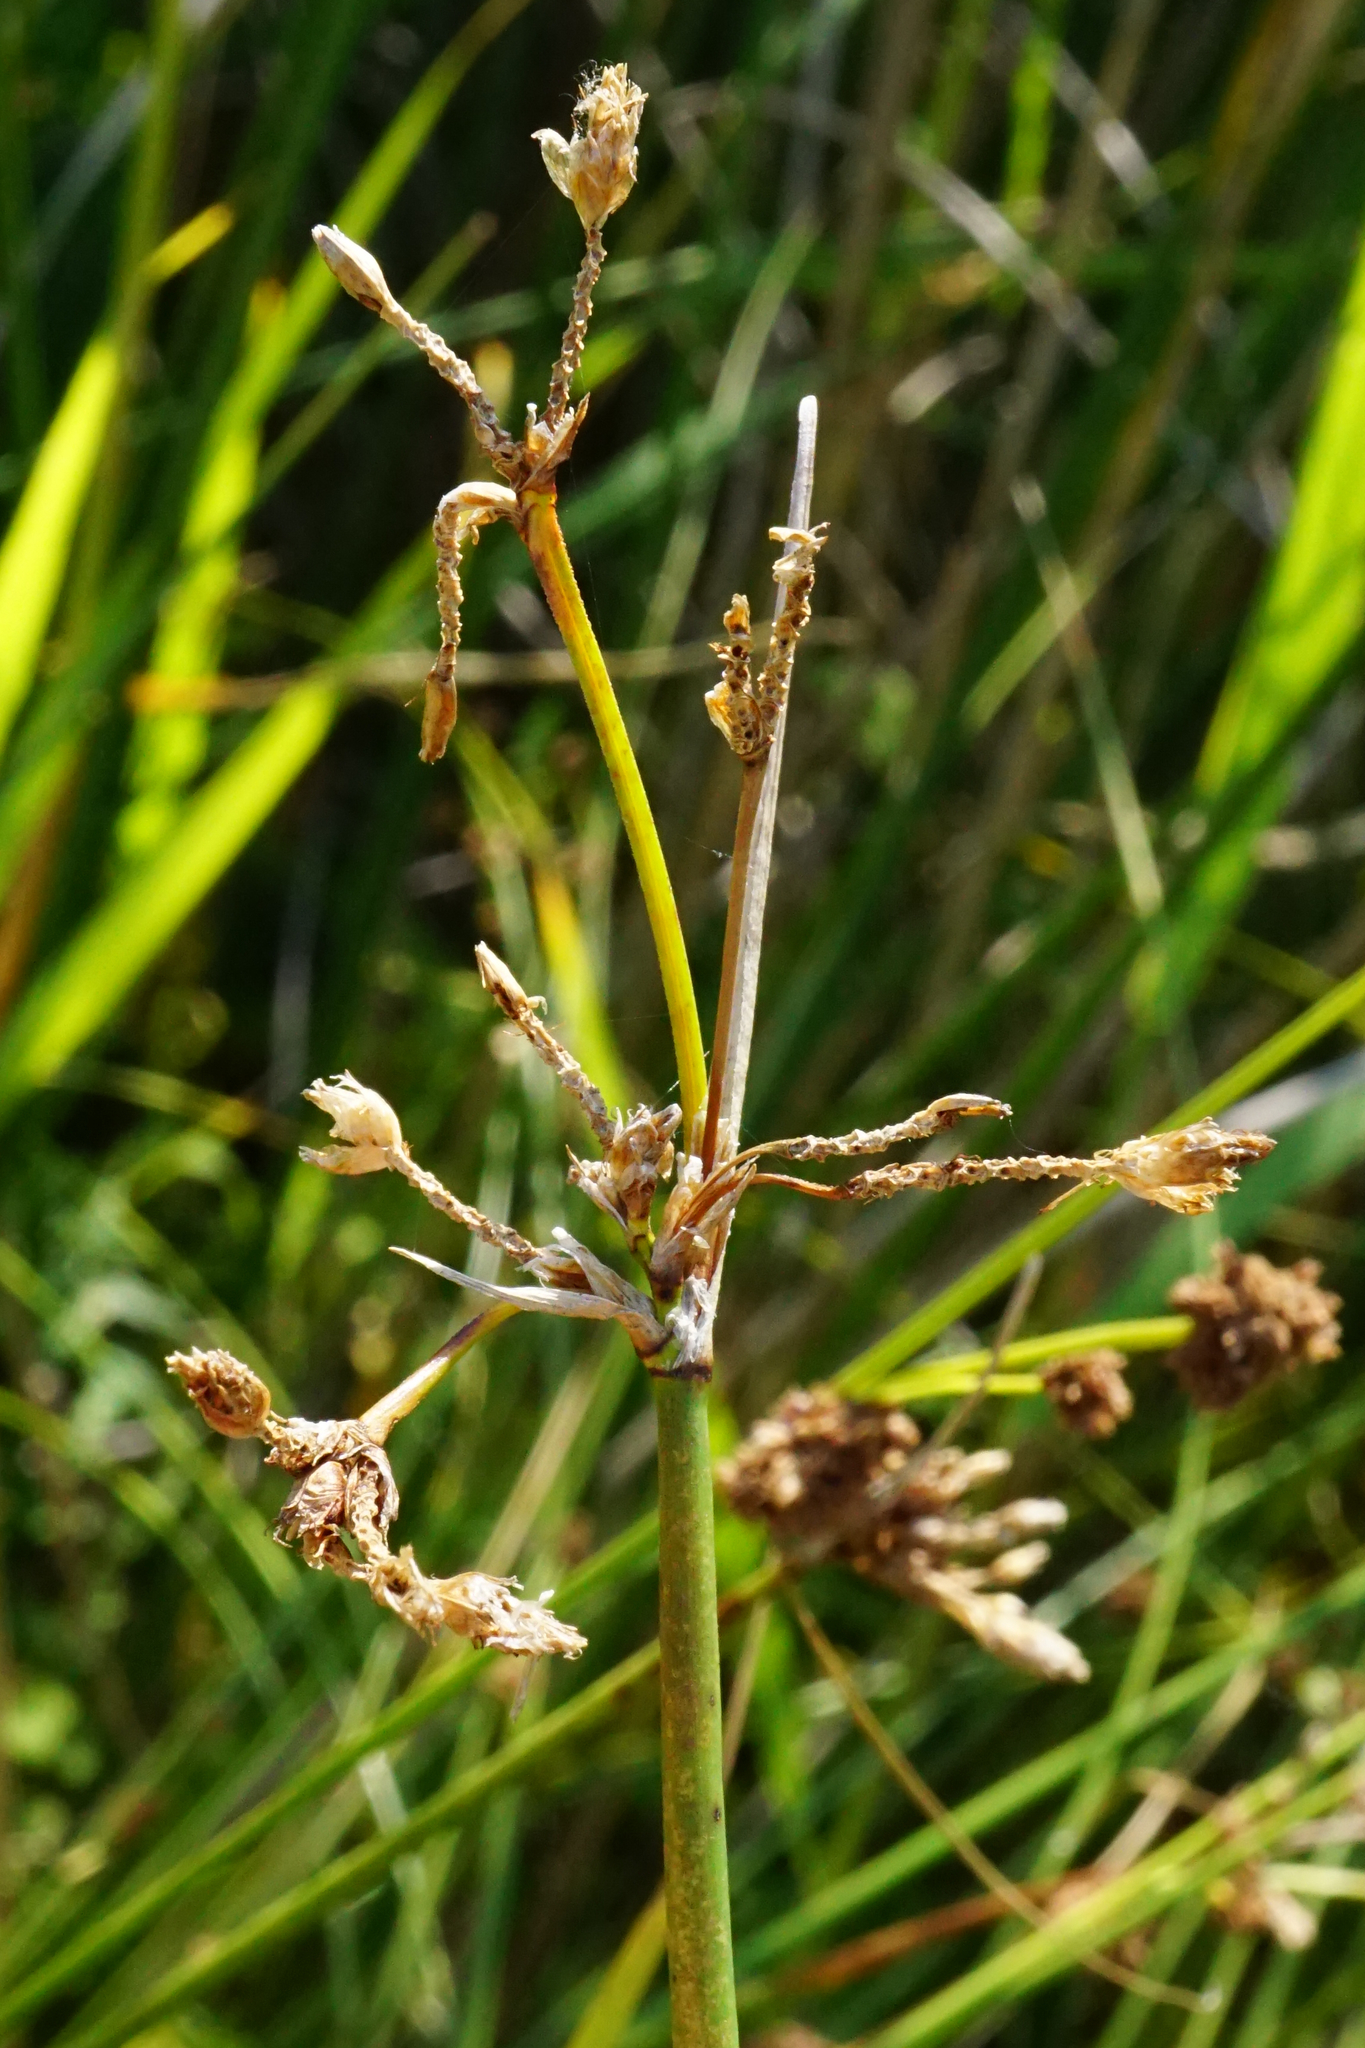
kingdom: Plantae
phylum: Tracheophyta
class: Liliopsida
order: Poales
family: Cyperaceae
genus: Schoenoplectus
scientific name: Schoenoplectus lacustris
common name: Common club-rush
